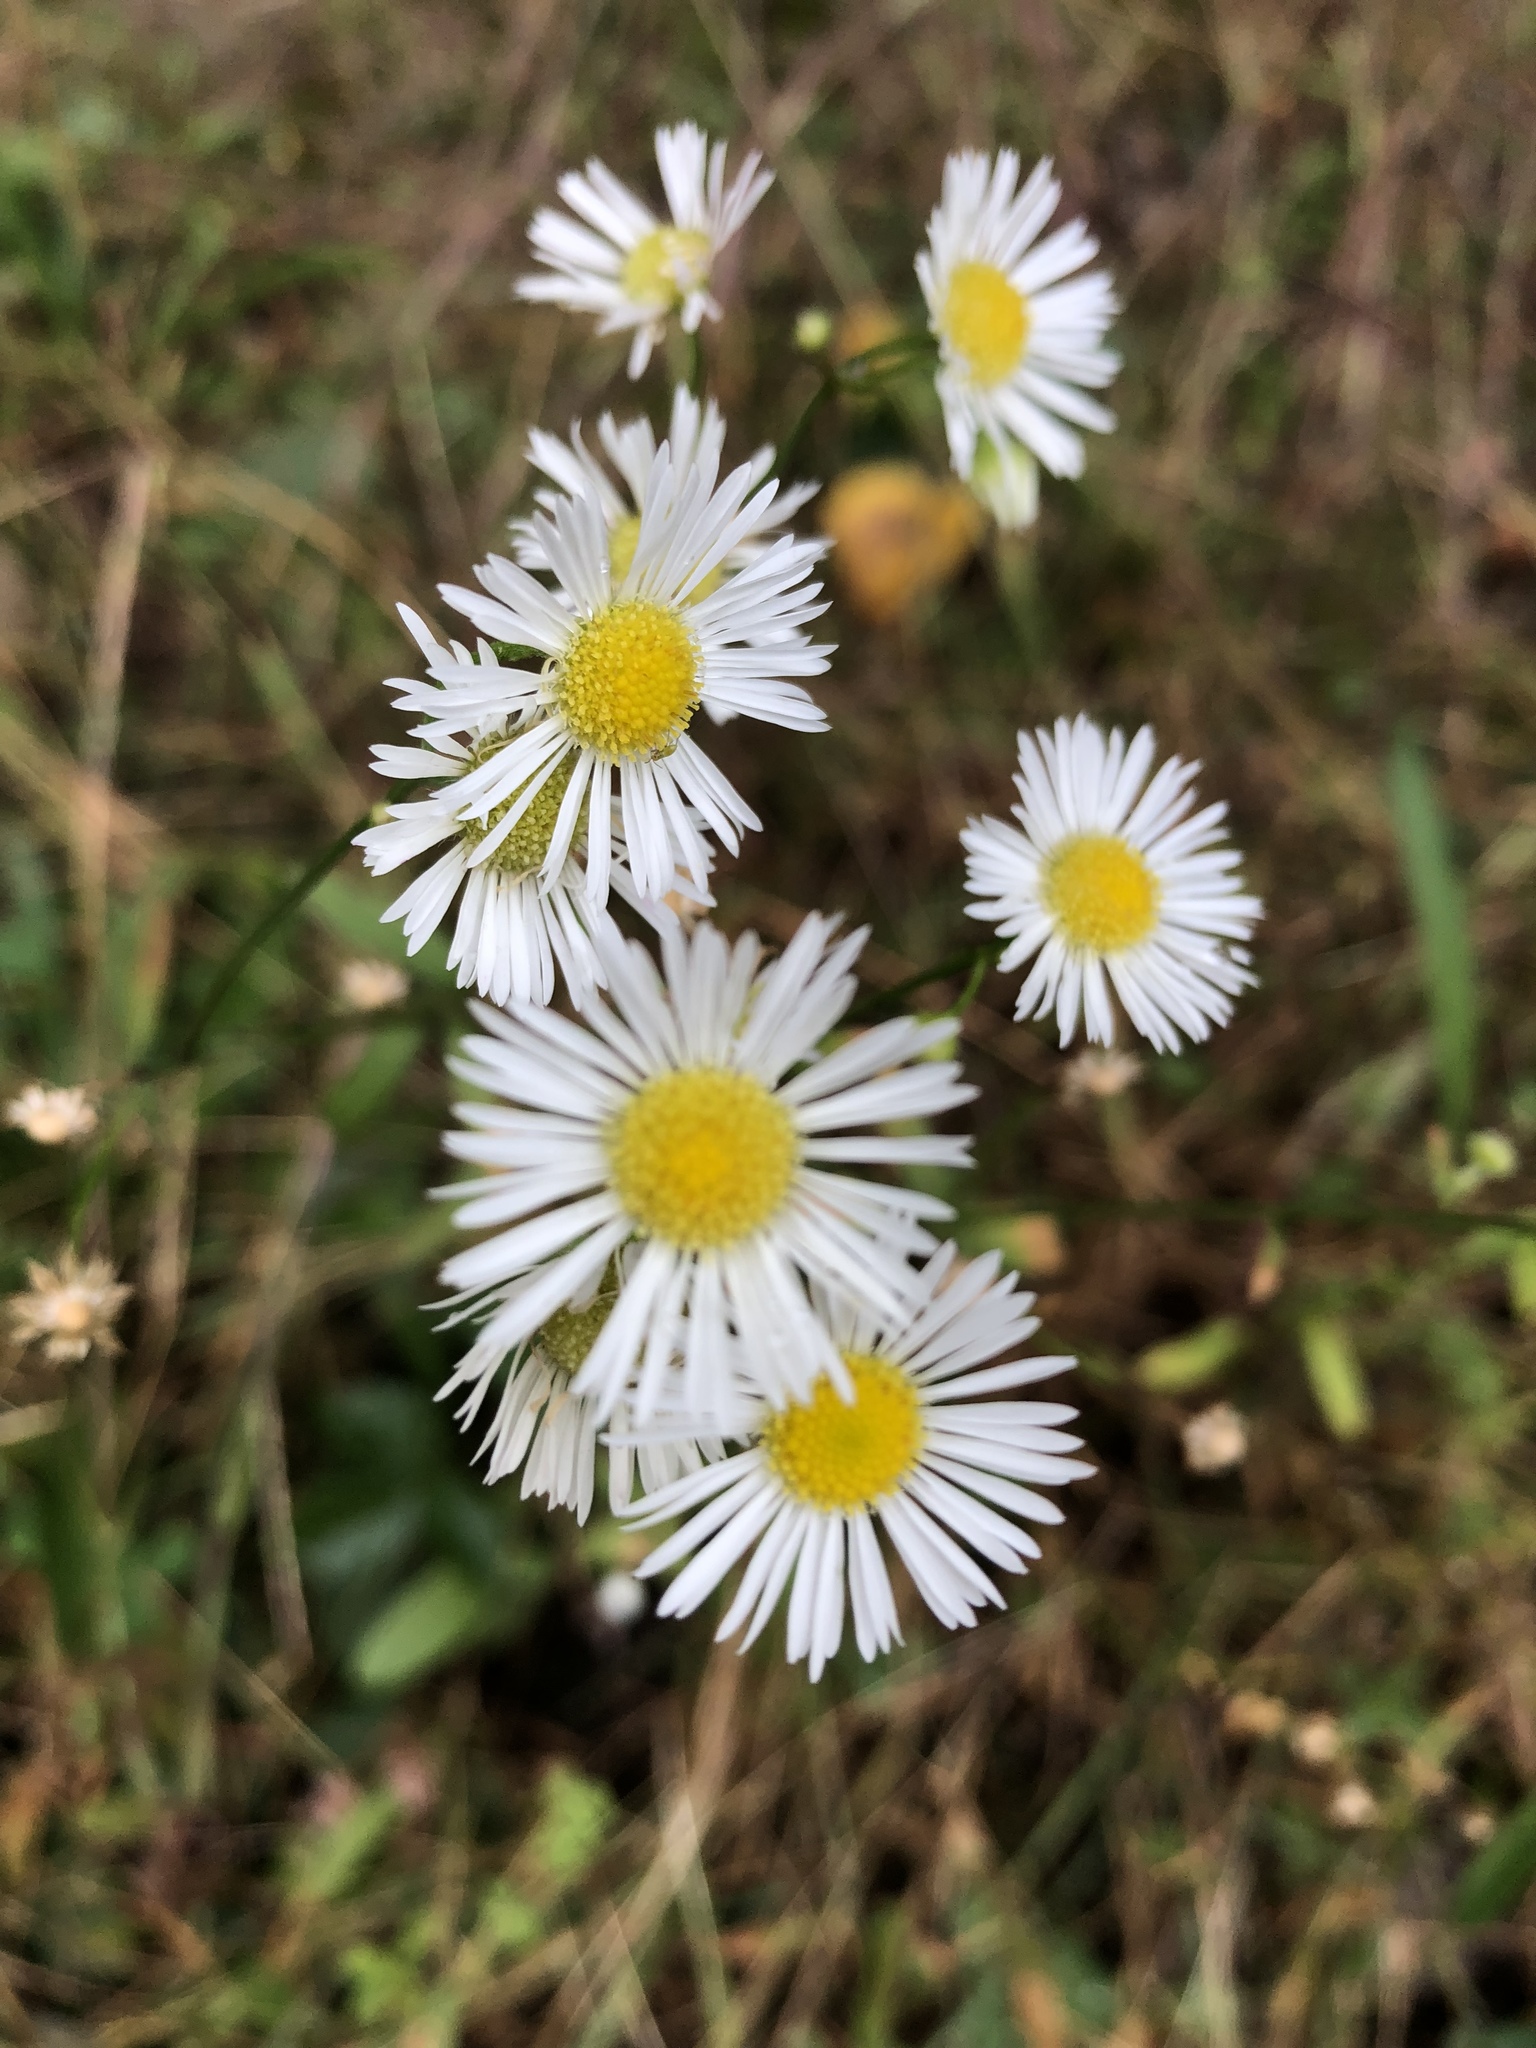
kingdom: Plantae
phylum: Tracheophyta
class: Magnoliopsida
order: Asterales
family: Asteraceae
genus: Erigeron
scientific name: Erigeron strigosus
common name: Common eastern fleabane
